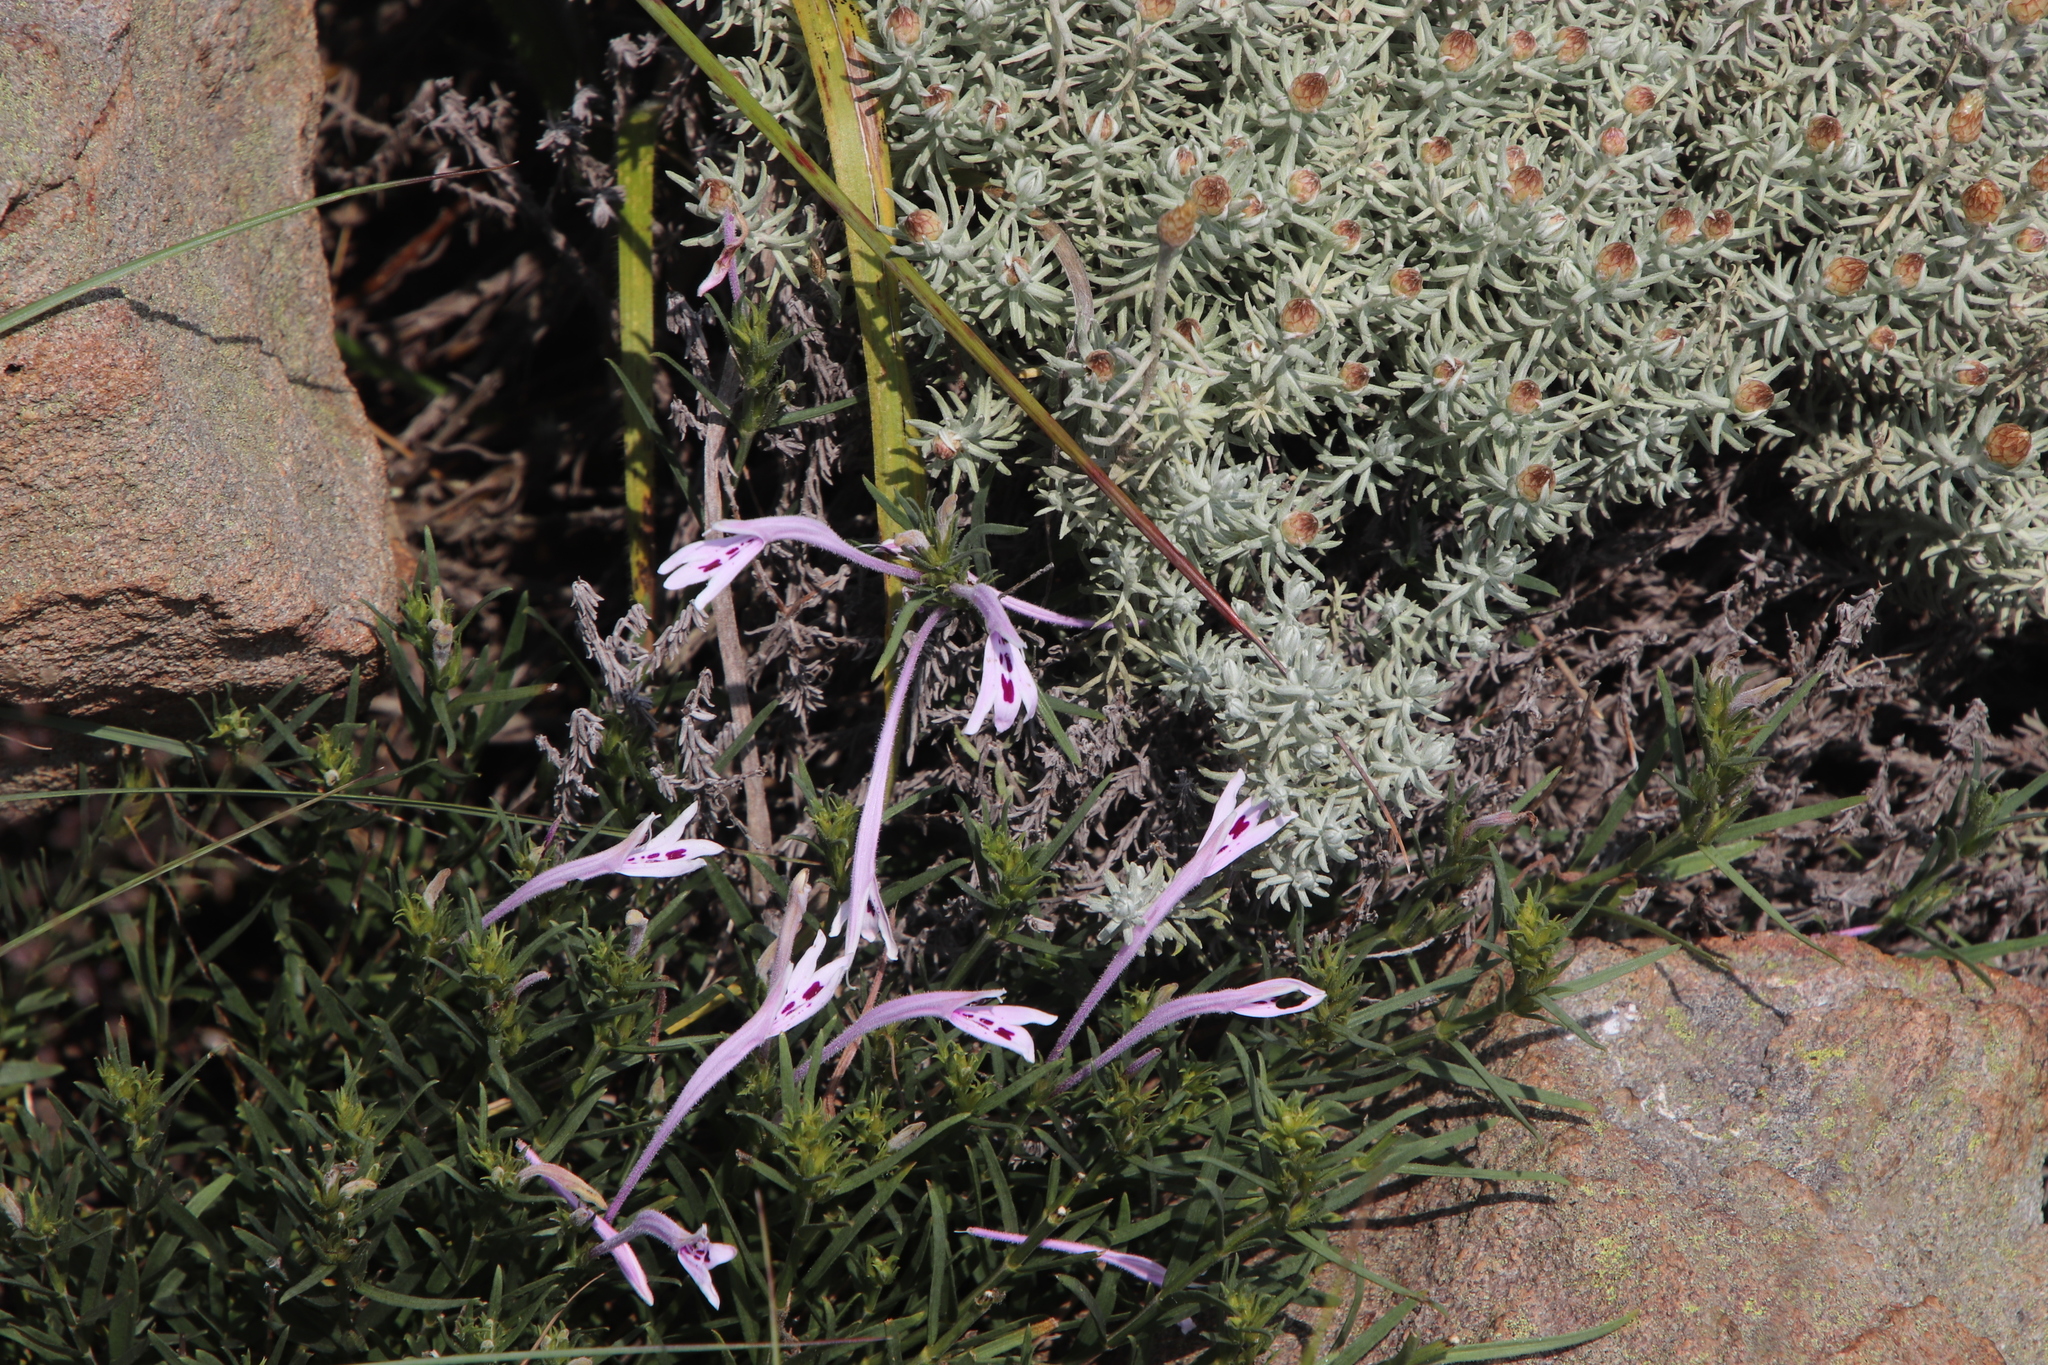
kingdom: Plantae
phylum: Tracheophyta
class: Magnoliopsida
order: Lamiales
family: Acanthaceae
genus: Justicia
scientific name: Justicia linifolia
